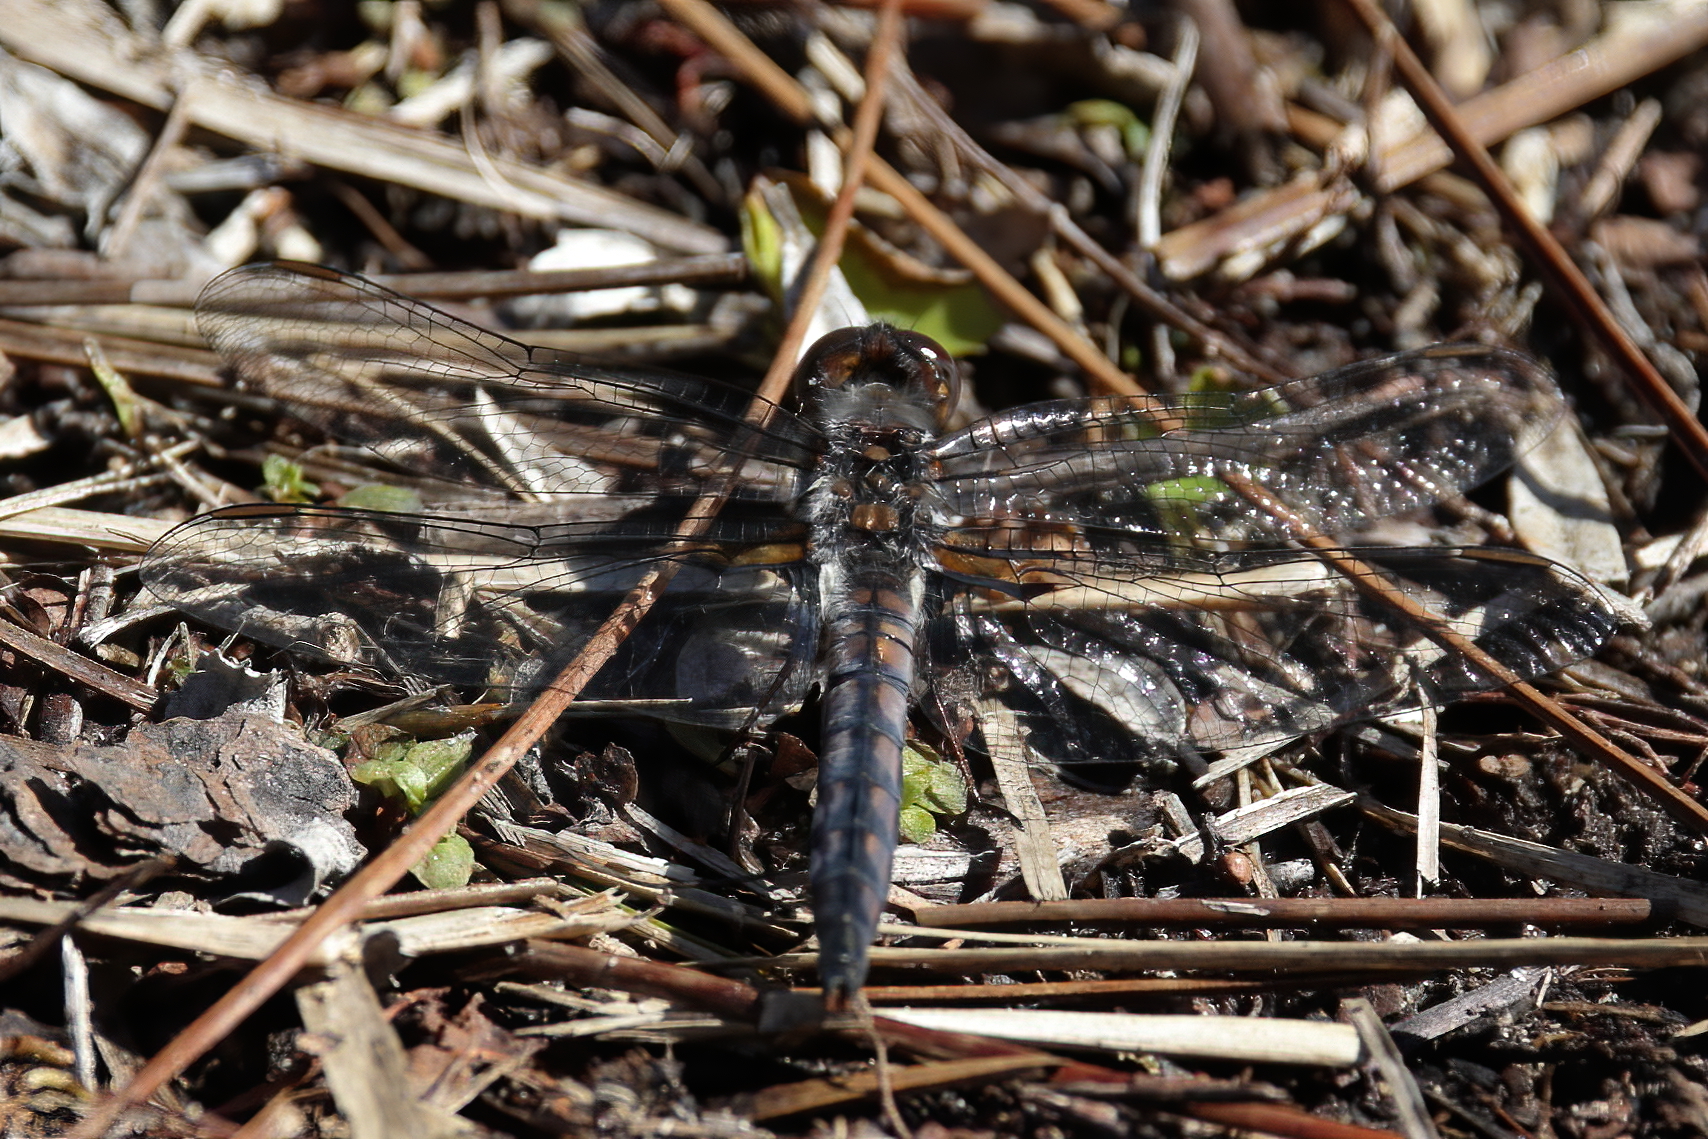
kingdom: Animalia
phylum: Arthropoda
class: Insecta
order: Odonata
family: Libellulidae
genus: Ladona
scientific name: Ladona deplanata
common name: Blue corporal
